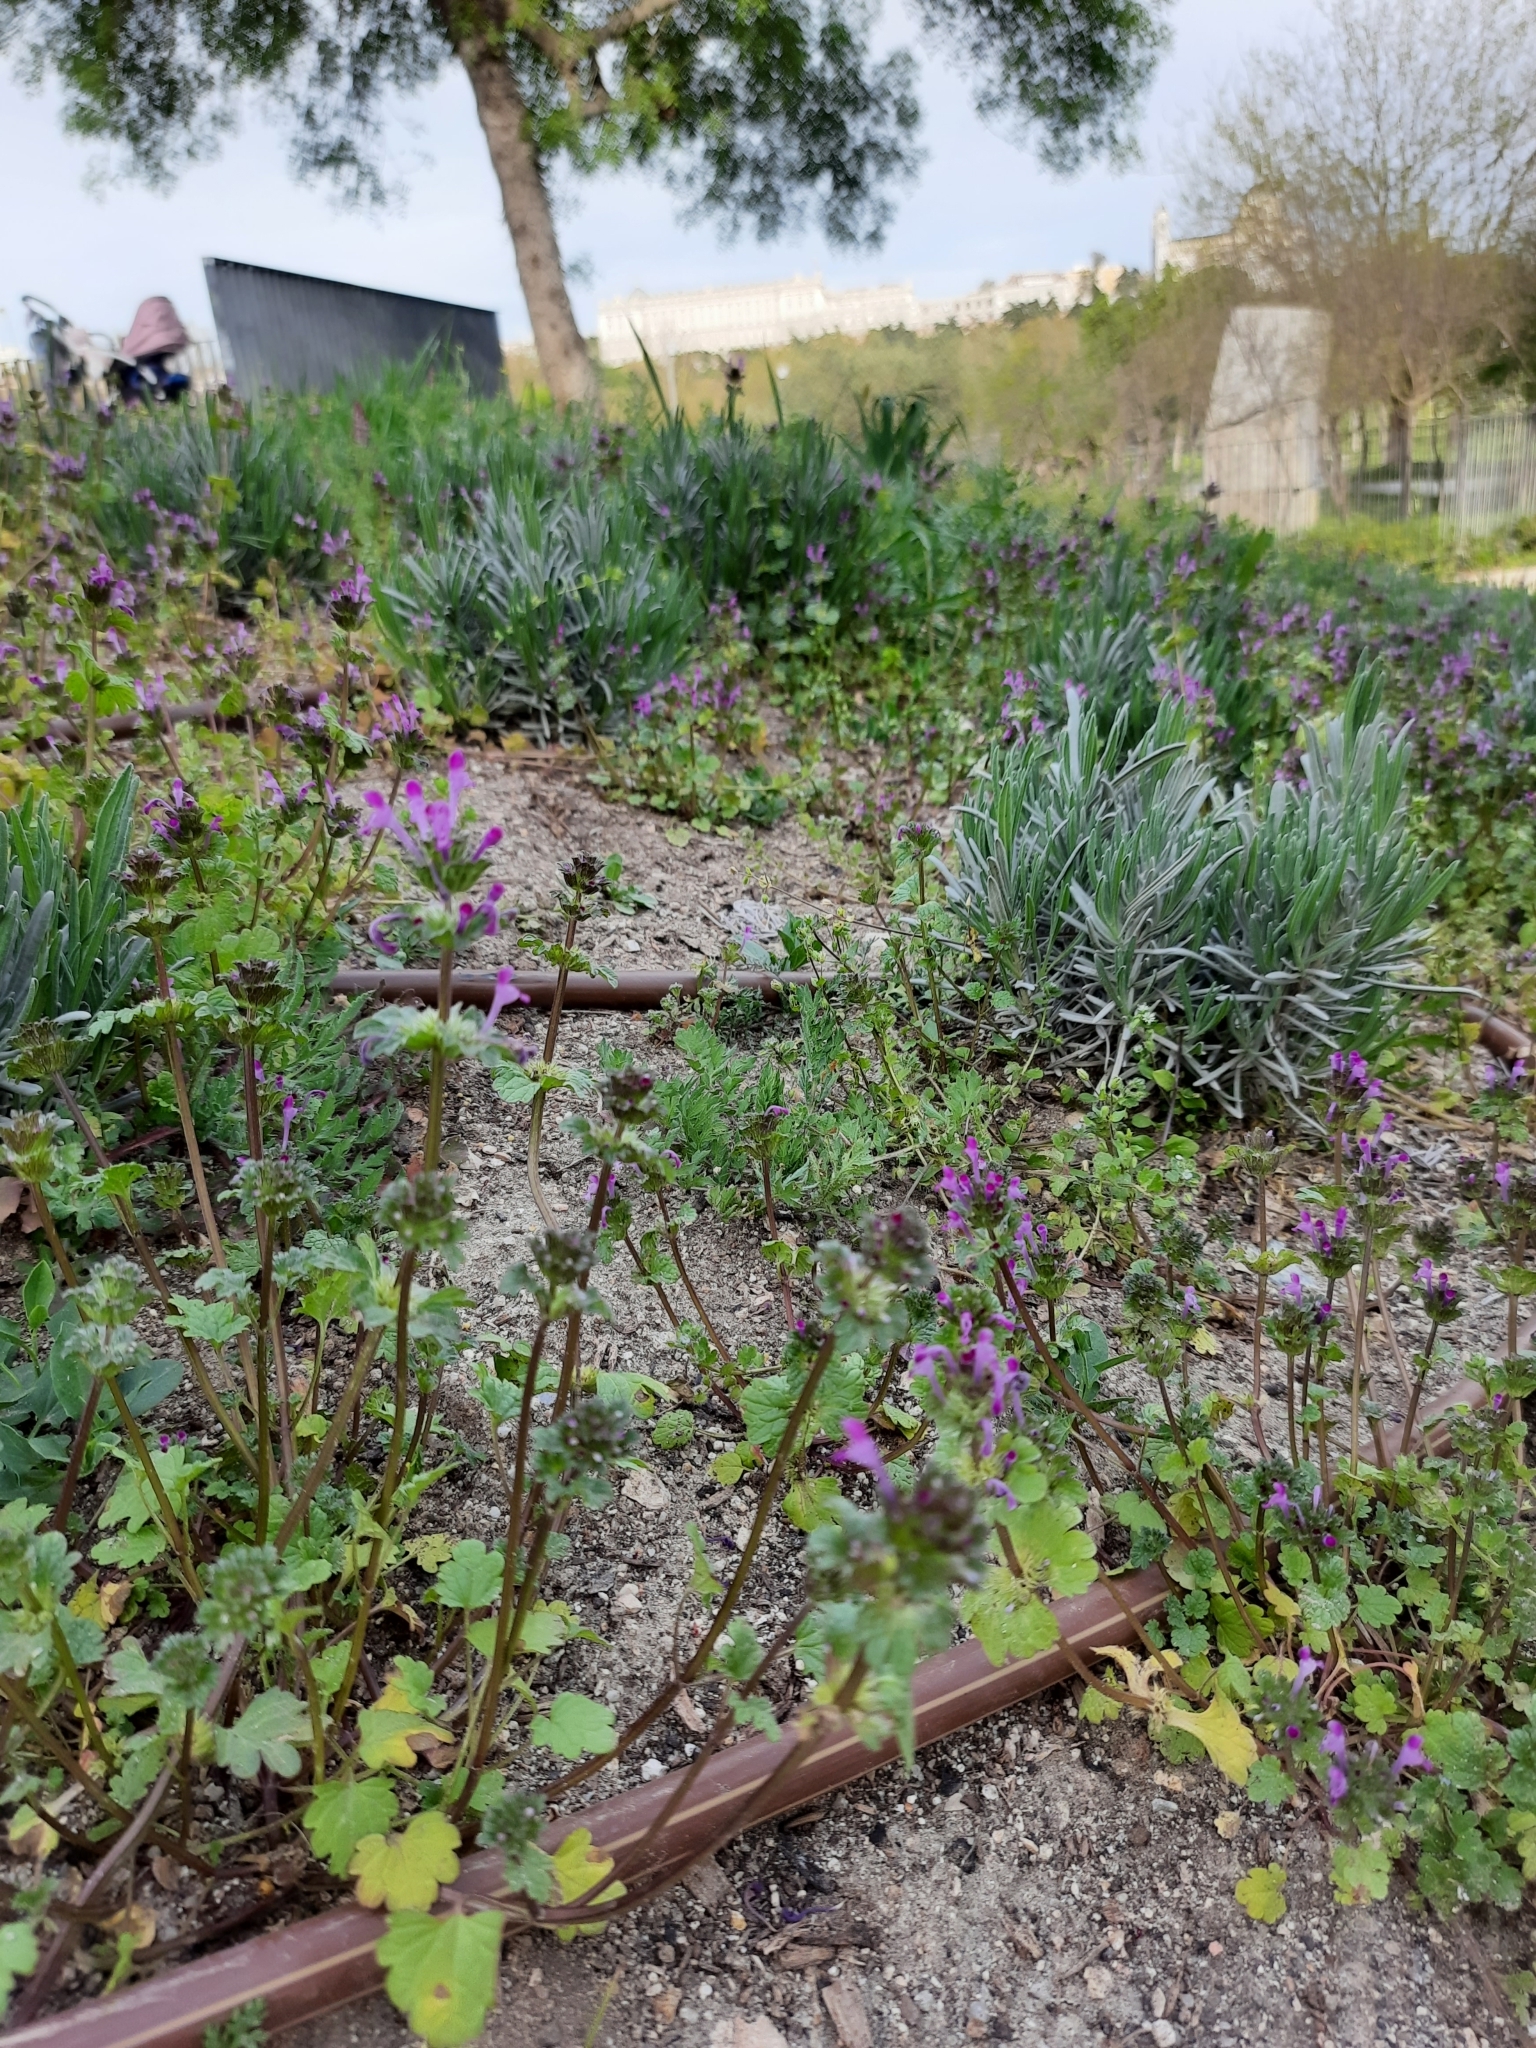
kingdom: Plantae
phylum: Tracheophyta
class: Magnoliopsida
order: Lamiales
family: Lamiaceae
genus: Lamium
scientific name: Lamium amplexicaule
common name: Henbit dead-nettle
